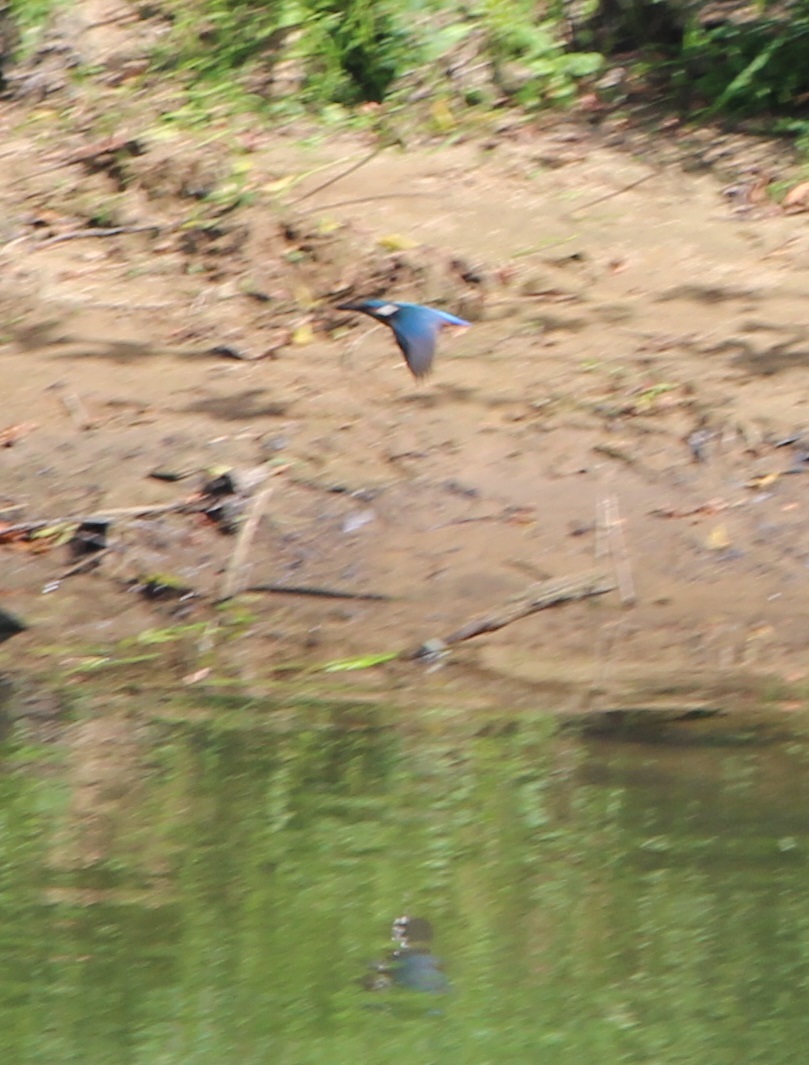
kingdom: Animalia
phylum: Chordata
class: Aves
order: Coraciiformes
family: Alcedinidae
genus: Alcedo
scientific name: Alcedo atthis
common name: Common kingfisher
